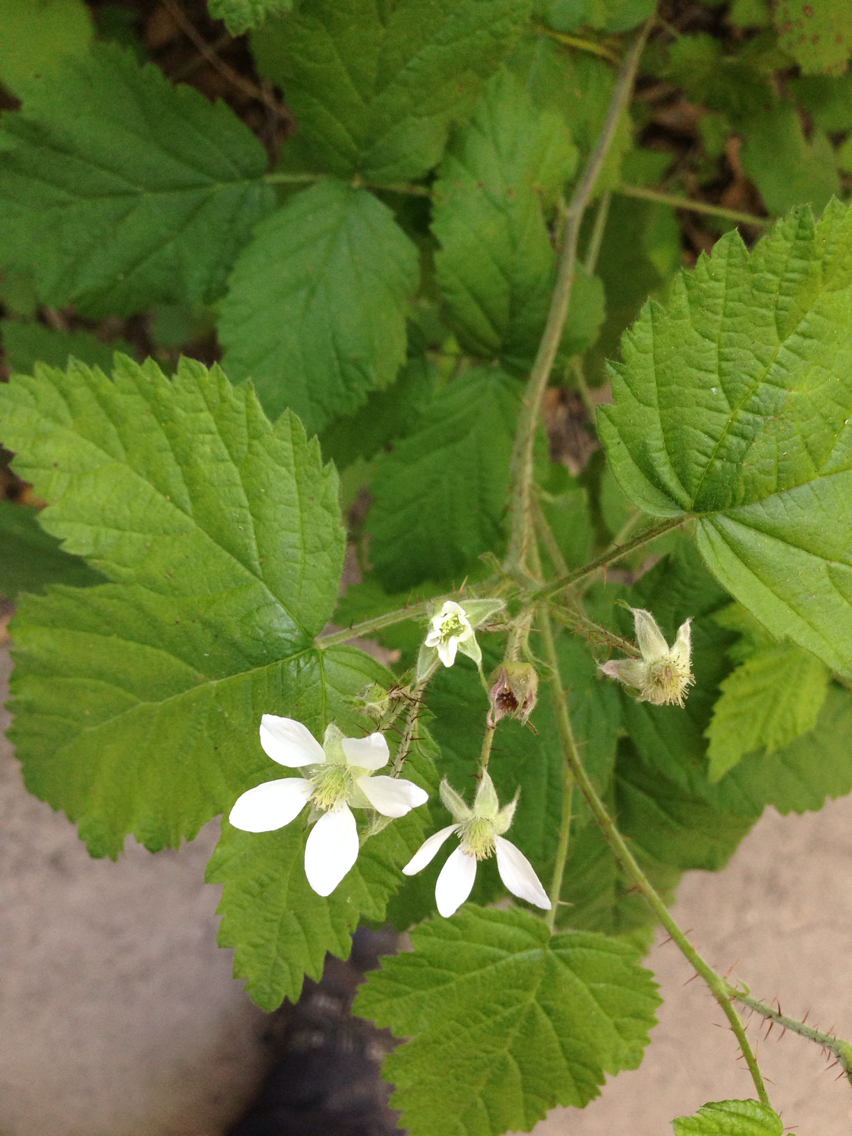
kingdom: Plantae
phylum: Tracheophyta
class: Magnoliopsida
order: Rosales
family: Rosaceae
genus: Rubus
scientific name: Rubus ursinus
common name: Pacific blackberry
